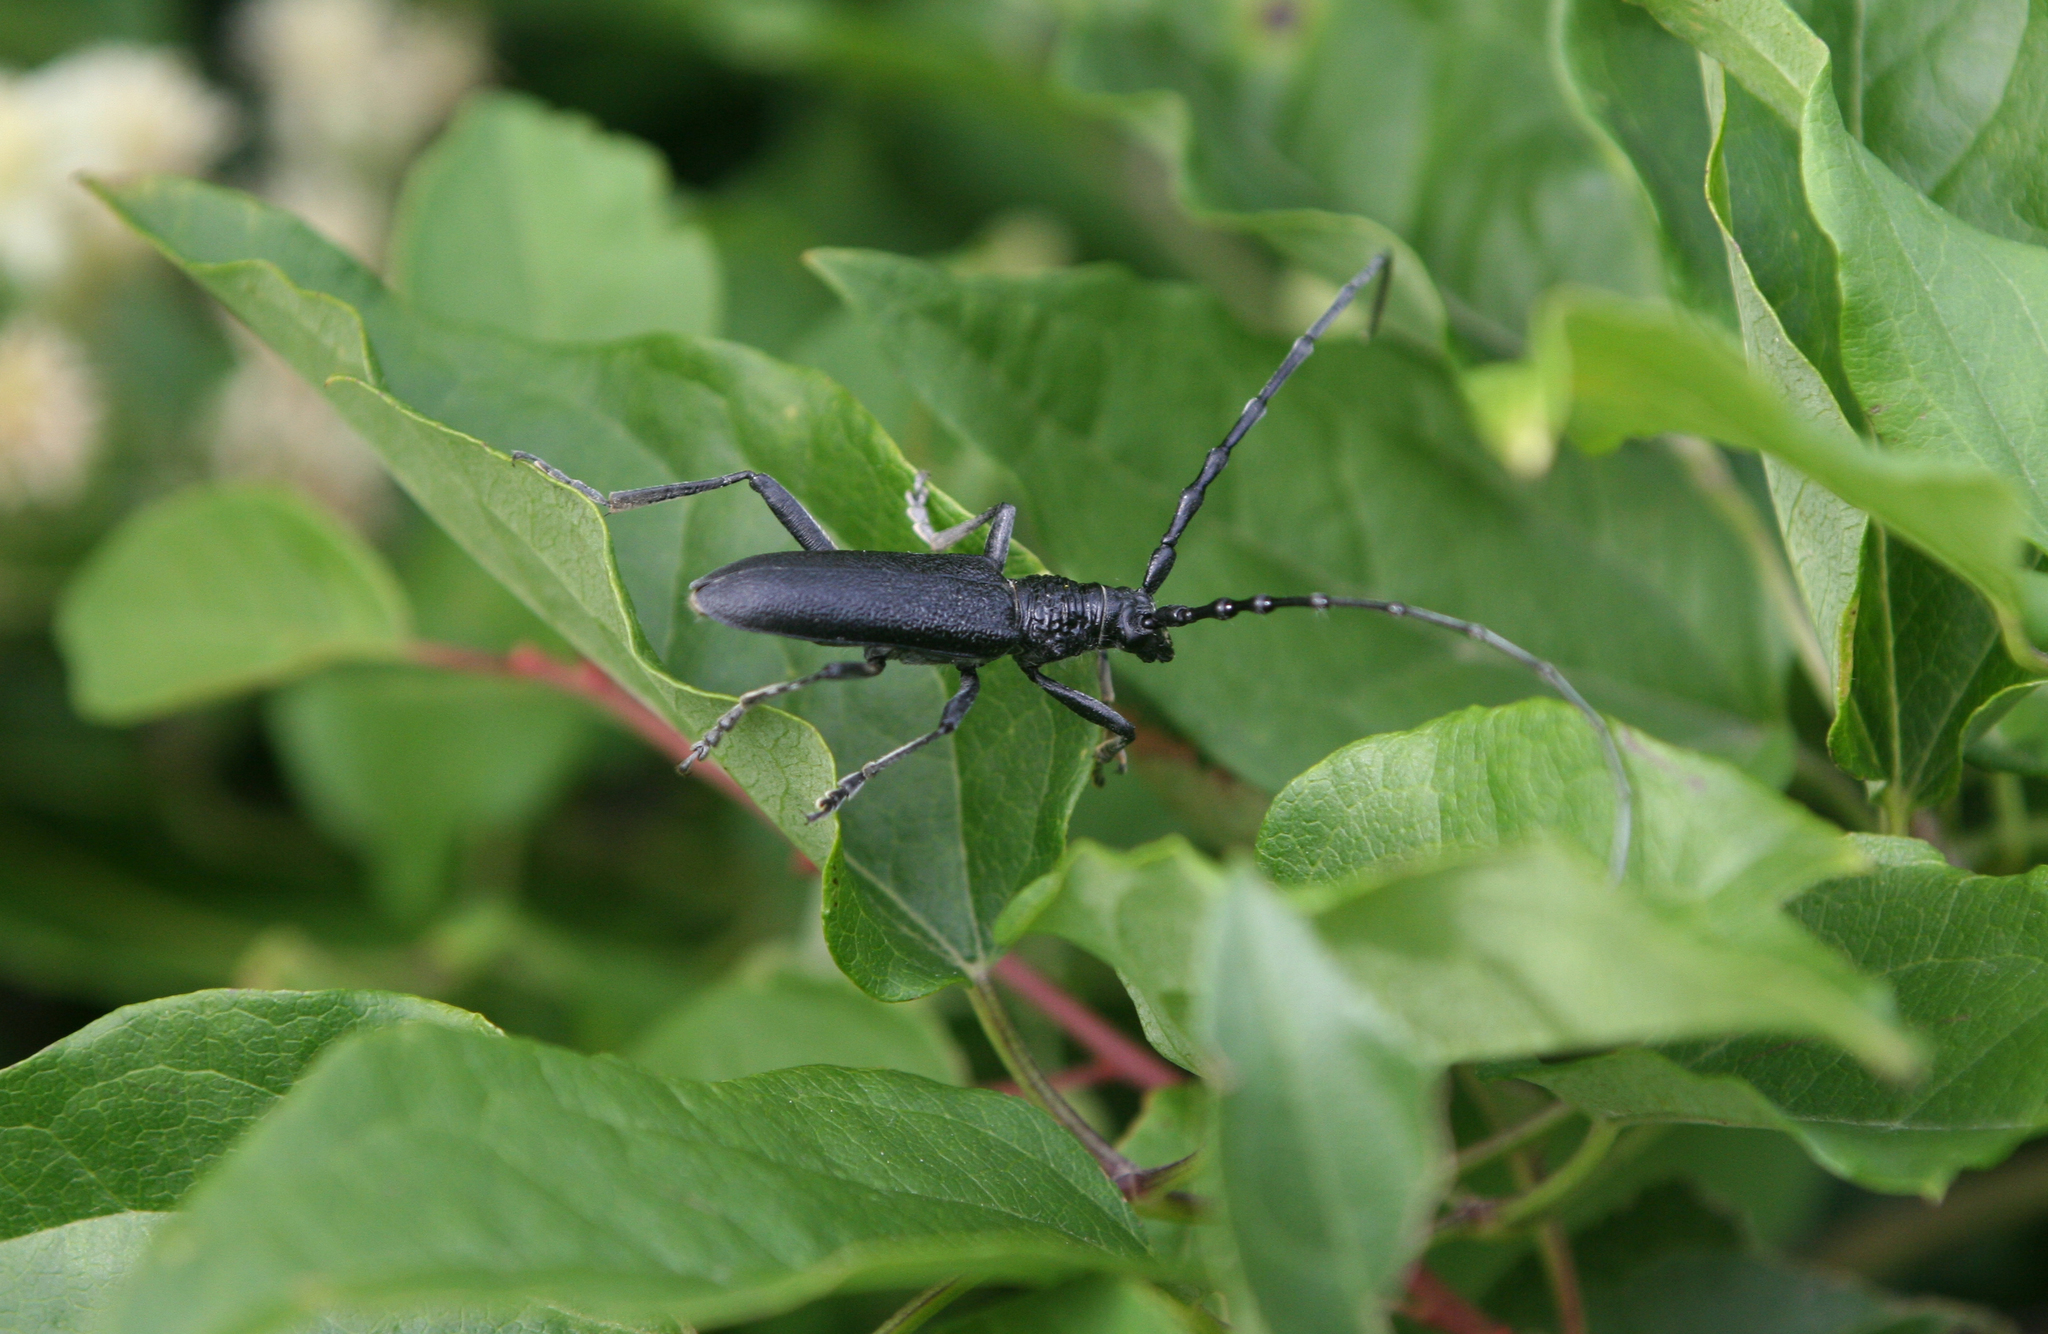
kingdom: Animalia
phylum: Arthropoda
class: Insecta
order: Coleoptera
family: Cerambycidae
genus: Cerambyx
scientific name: Cerambyx scopolii
